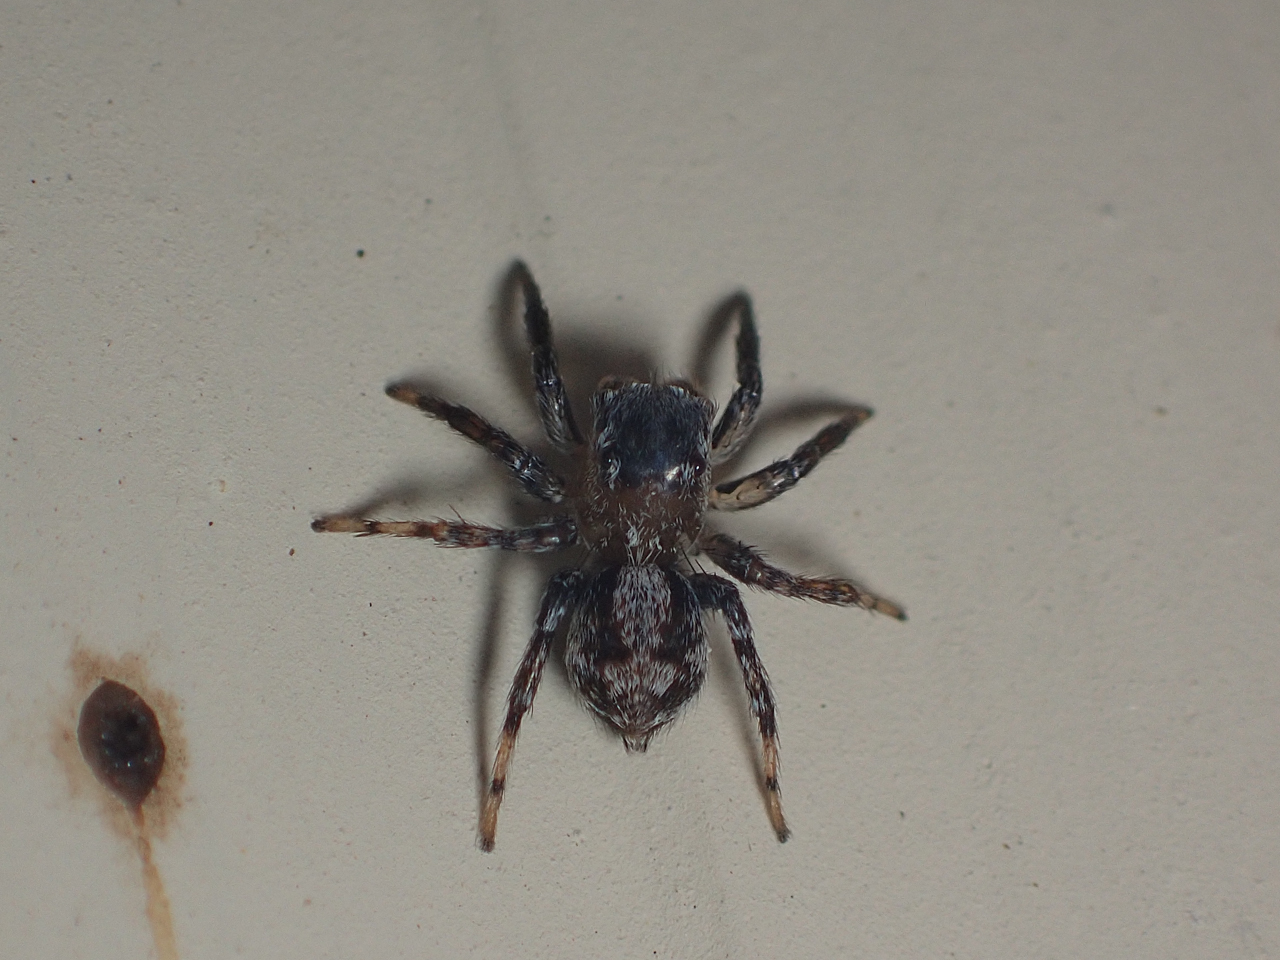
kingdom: Animalia
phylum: Arthropoda
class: Arachnida
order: Araneae
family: Salticidae
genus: Naphrys
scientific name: Naphrys pulex
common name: Flea jumping spider
